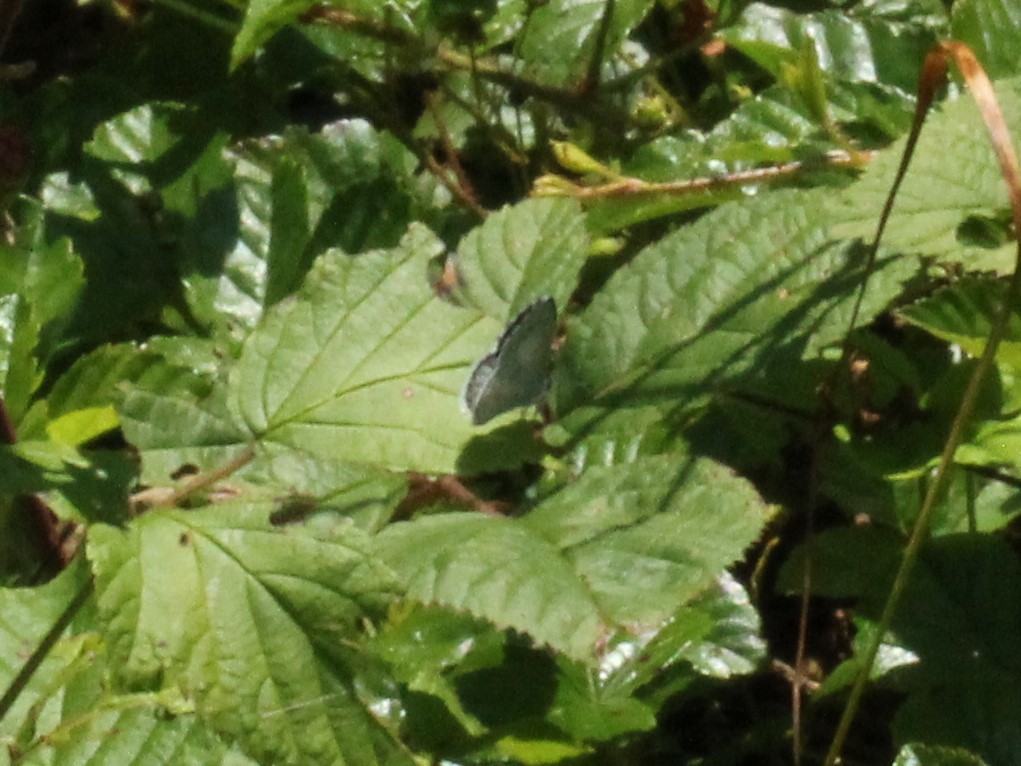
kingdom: Animalia
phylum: Arthropoda
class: Insecta
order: Lepidoptera
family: Lycaenidae
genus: Cyaniris
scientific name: Cyaniris neglecta
